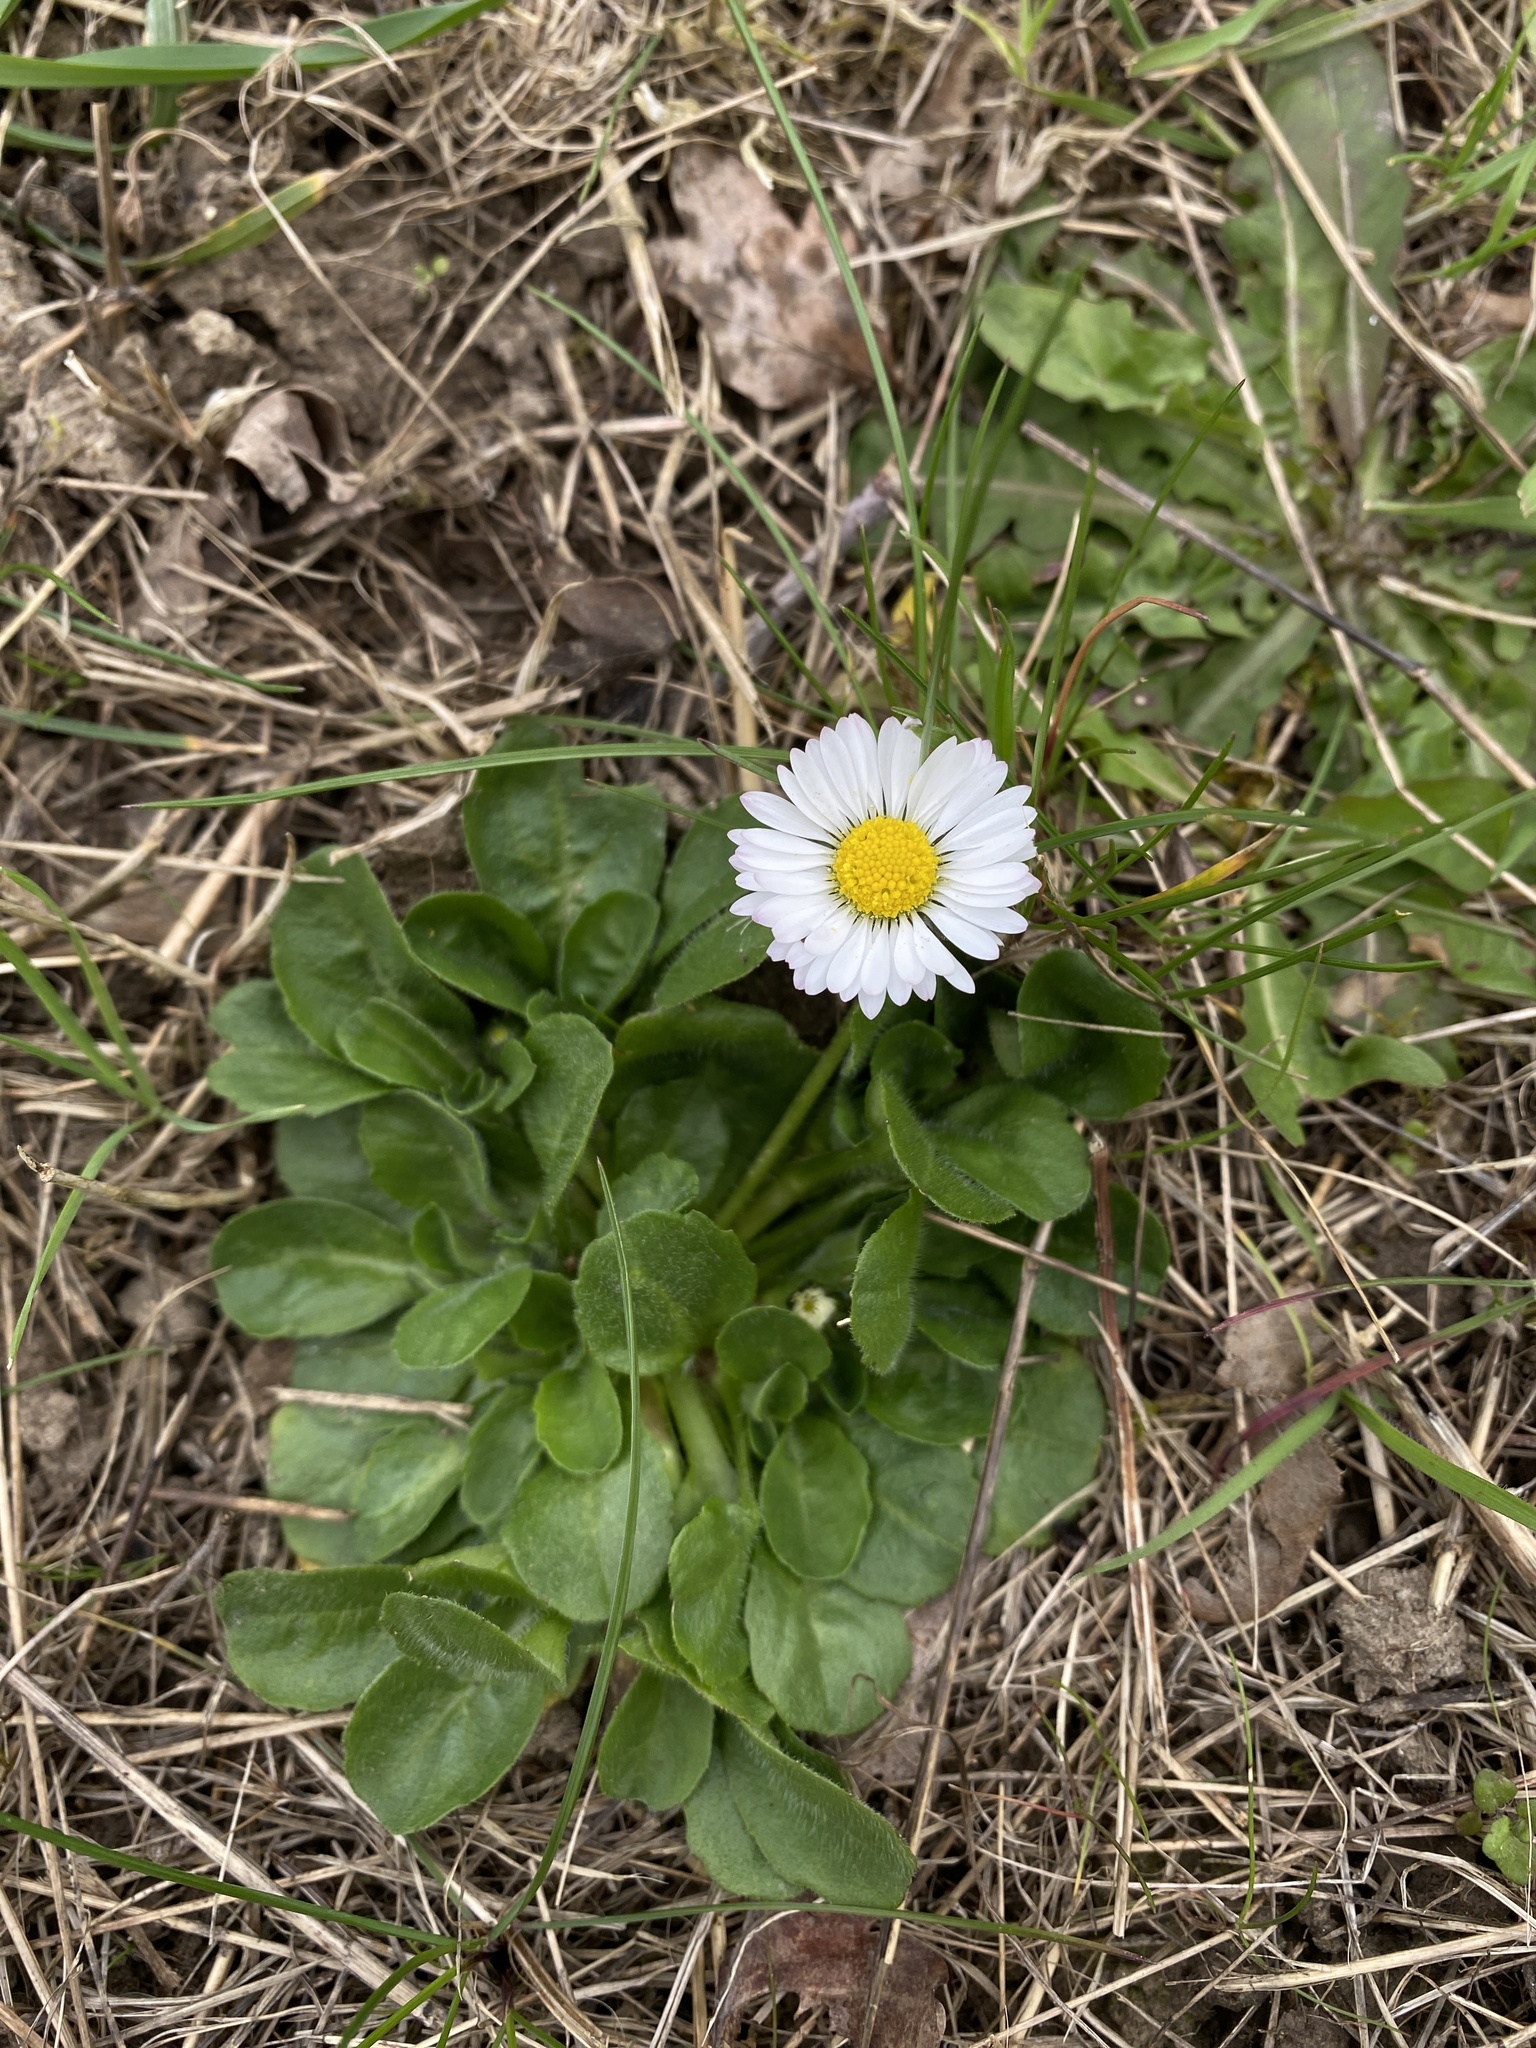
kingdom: Plantae
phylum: Tracheophyta
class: Magnoliopsida
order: Asterales
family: Asteraceae
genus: Bellis
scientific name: Bellis perennis
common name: Lawndaisy
